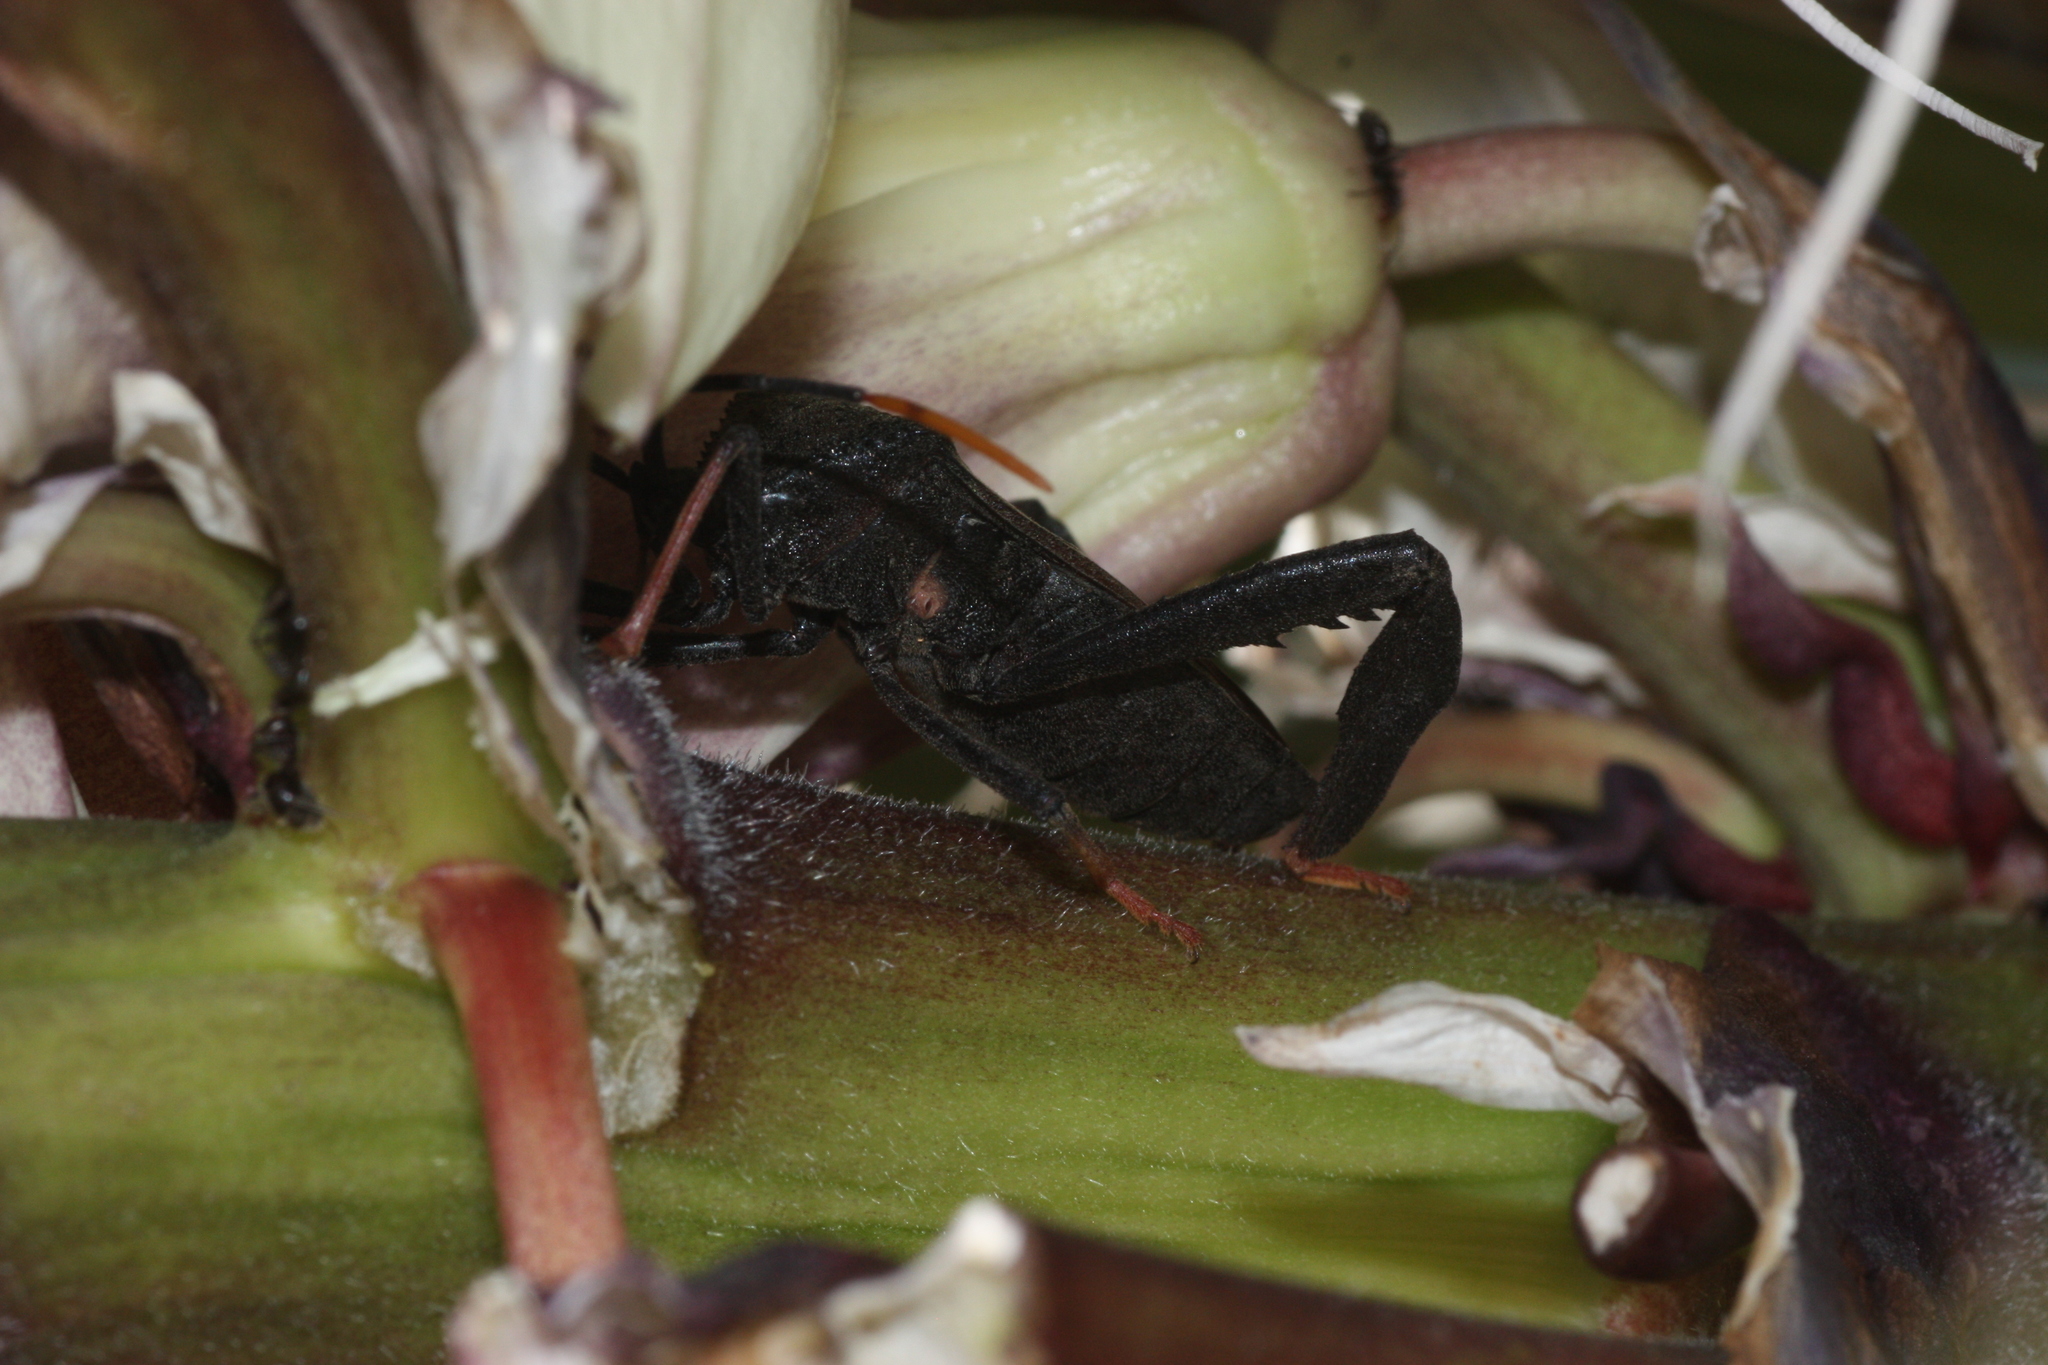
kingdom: Animalia
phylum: Arthropoda
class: Insecta
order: Hemiptera
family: Coreidae
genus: Acanthocephala
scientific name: Acanthocephala thomasi
